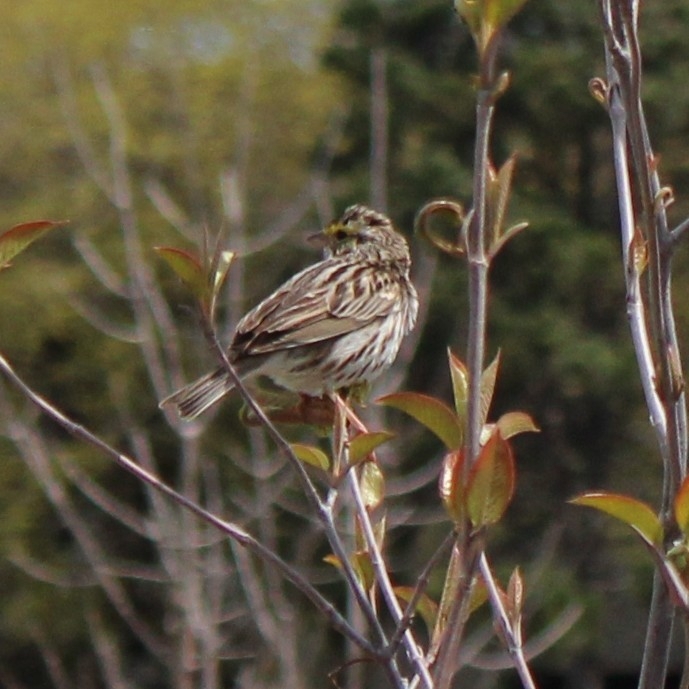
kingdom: Animalia
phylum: Chordata
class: Aves
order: Passeriformes
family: Passerellidae
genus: Passerculus
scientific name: Passerculus sandwichensis
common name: Savannah sparrow
